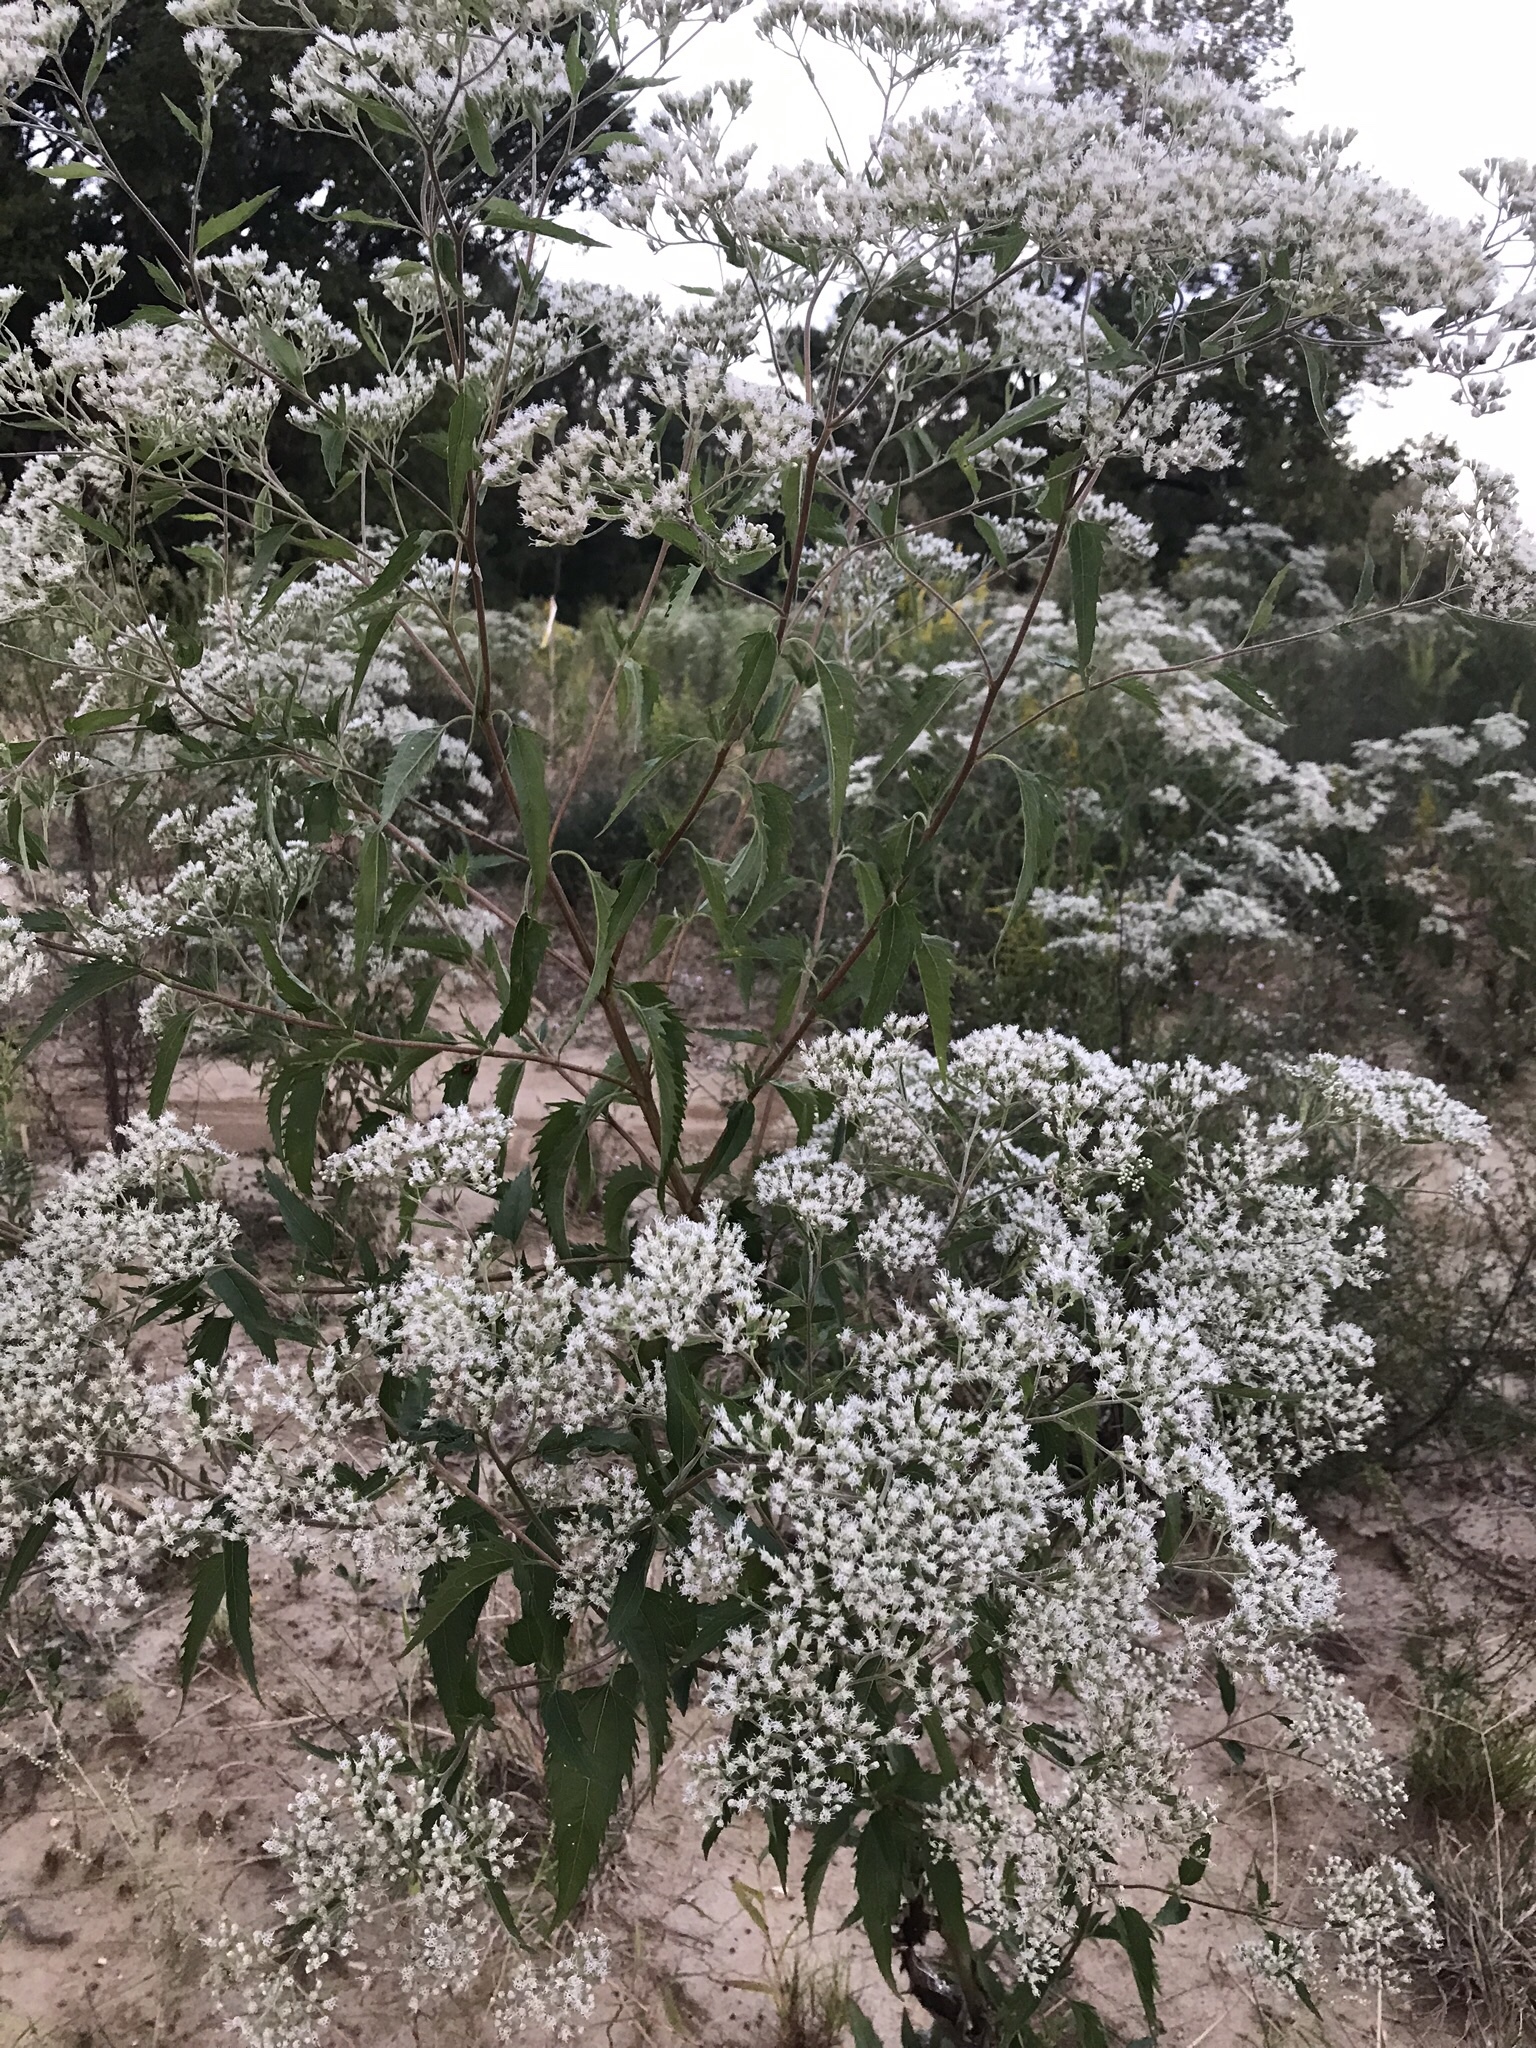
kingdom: Plantae
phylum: Tracheophyta
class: Magnoliopsida
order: Asterales
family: Asteraceae
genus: Eupatorium
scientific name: Eupatorium serotinum
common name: Late boneset
